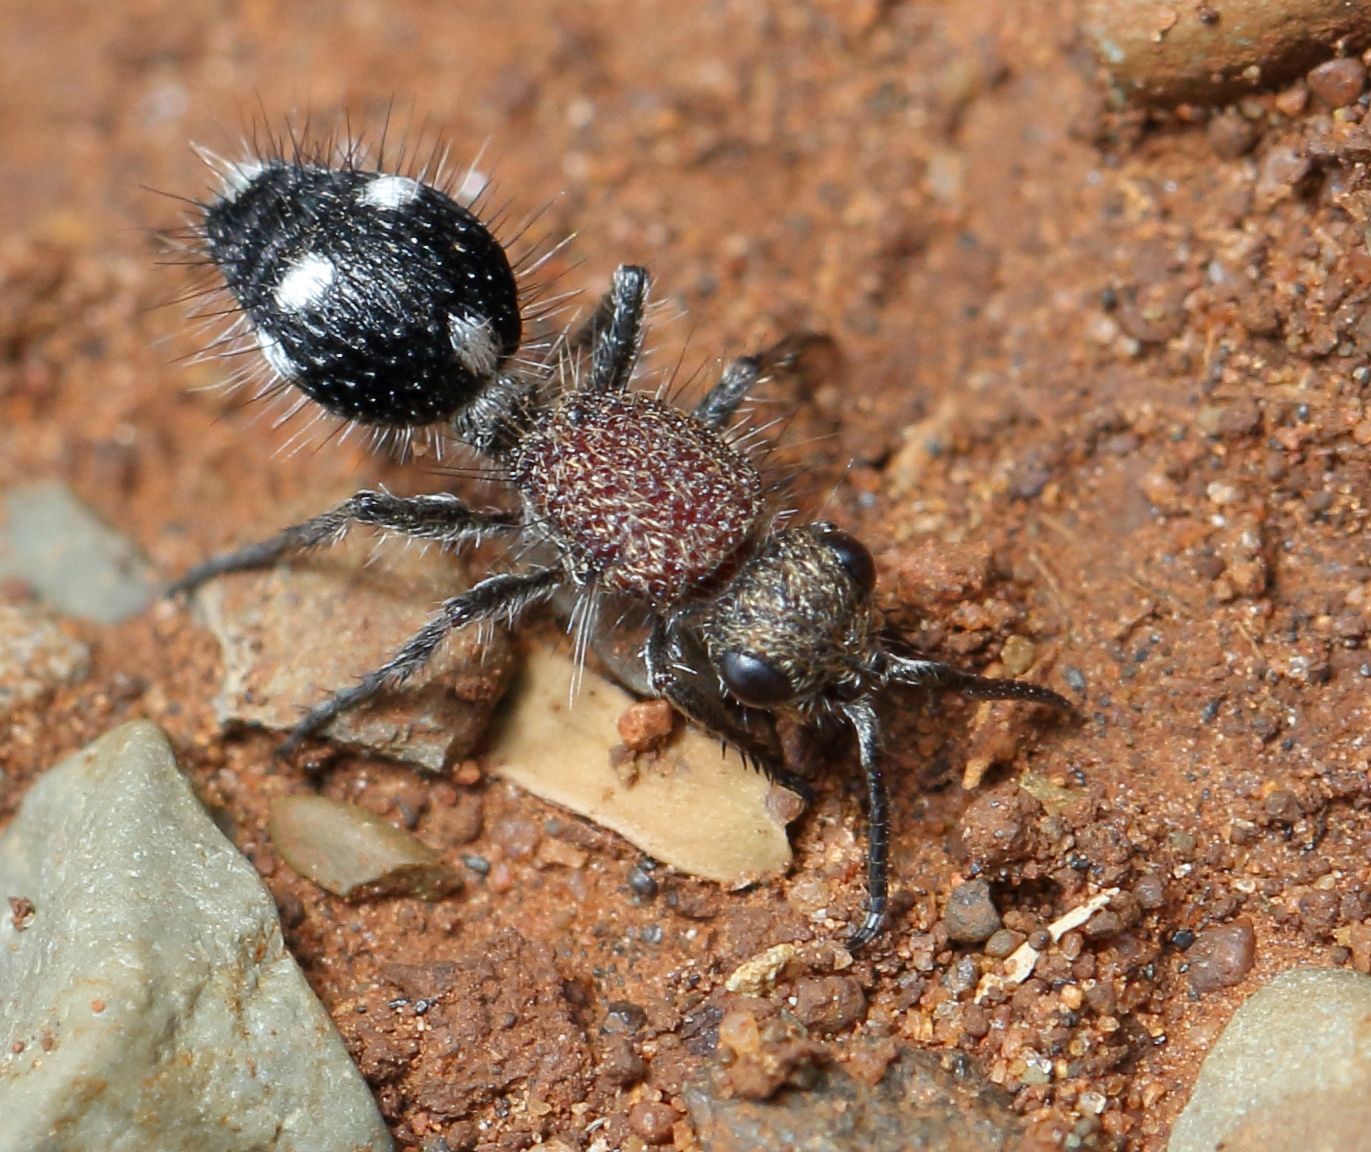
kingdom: Animalia
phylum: Arthropoda
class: Insecta
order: Hymenoptera
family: Mutillidae
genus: Dasylabris
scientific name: Dasylabris
